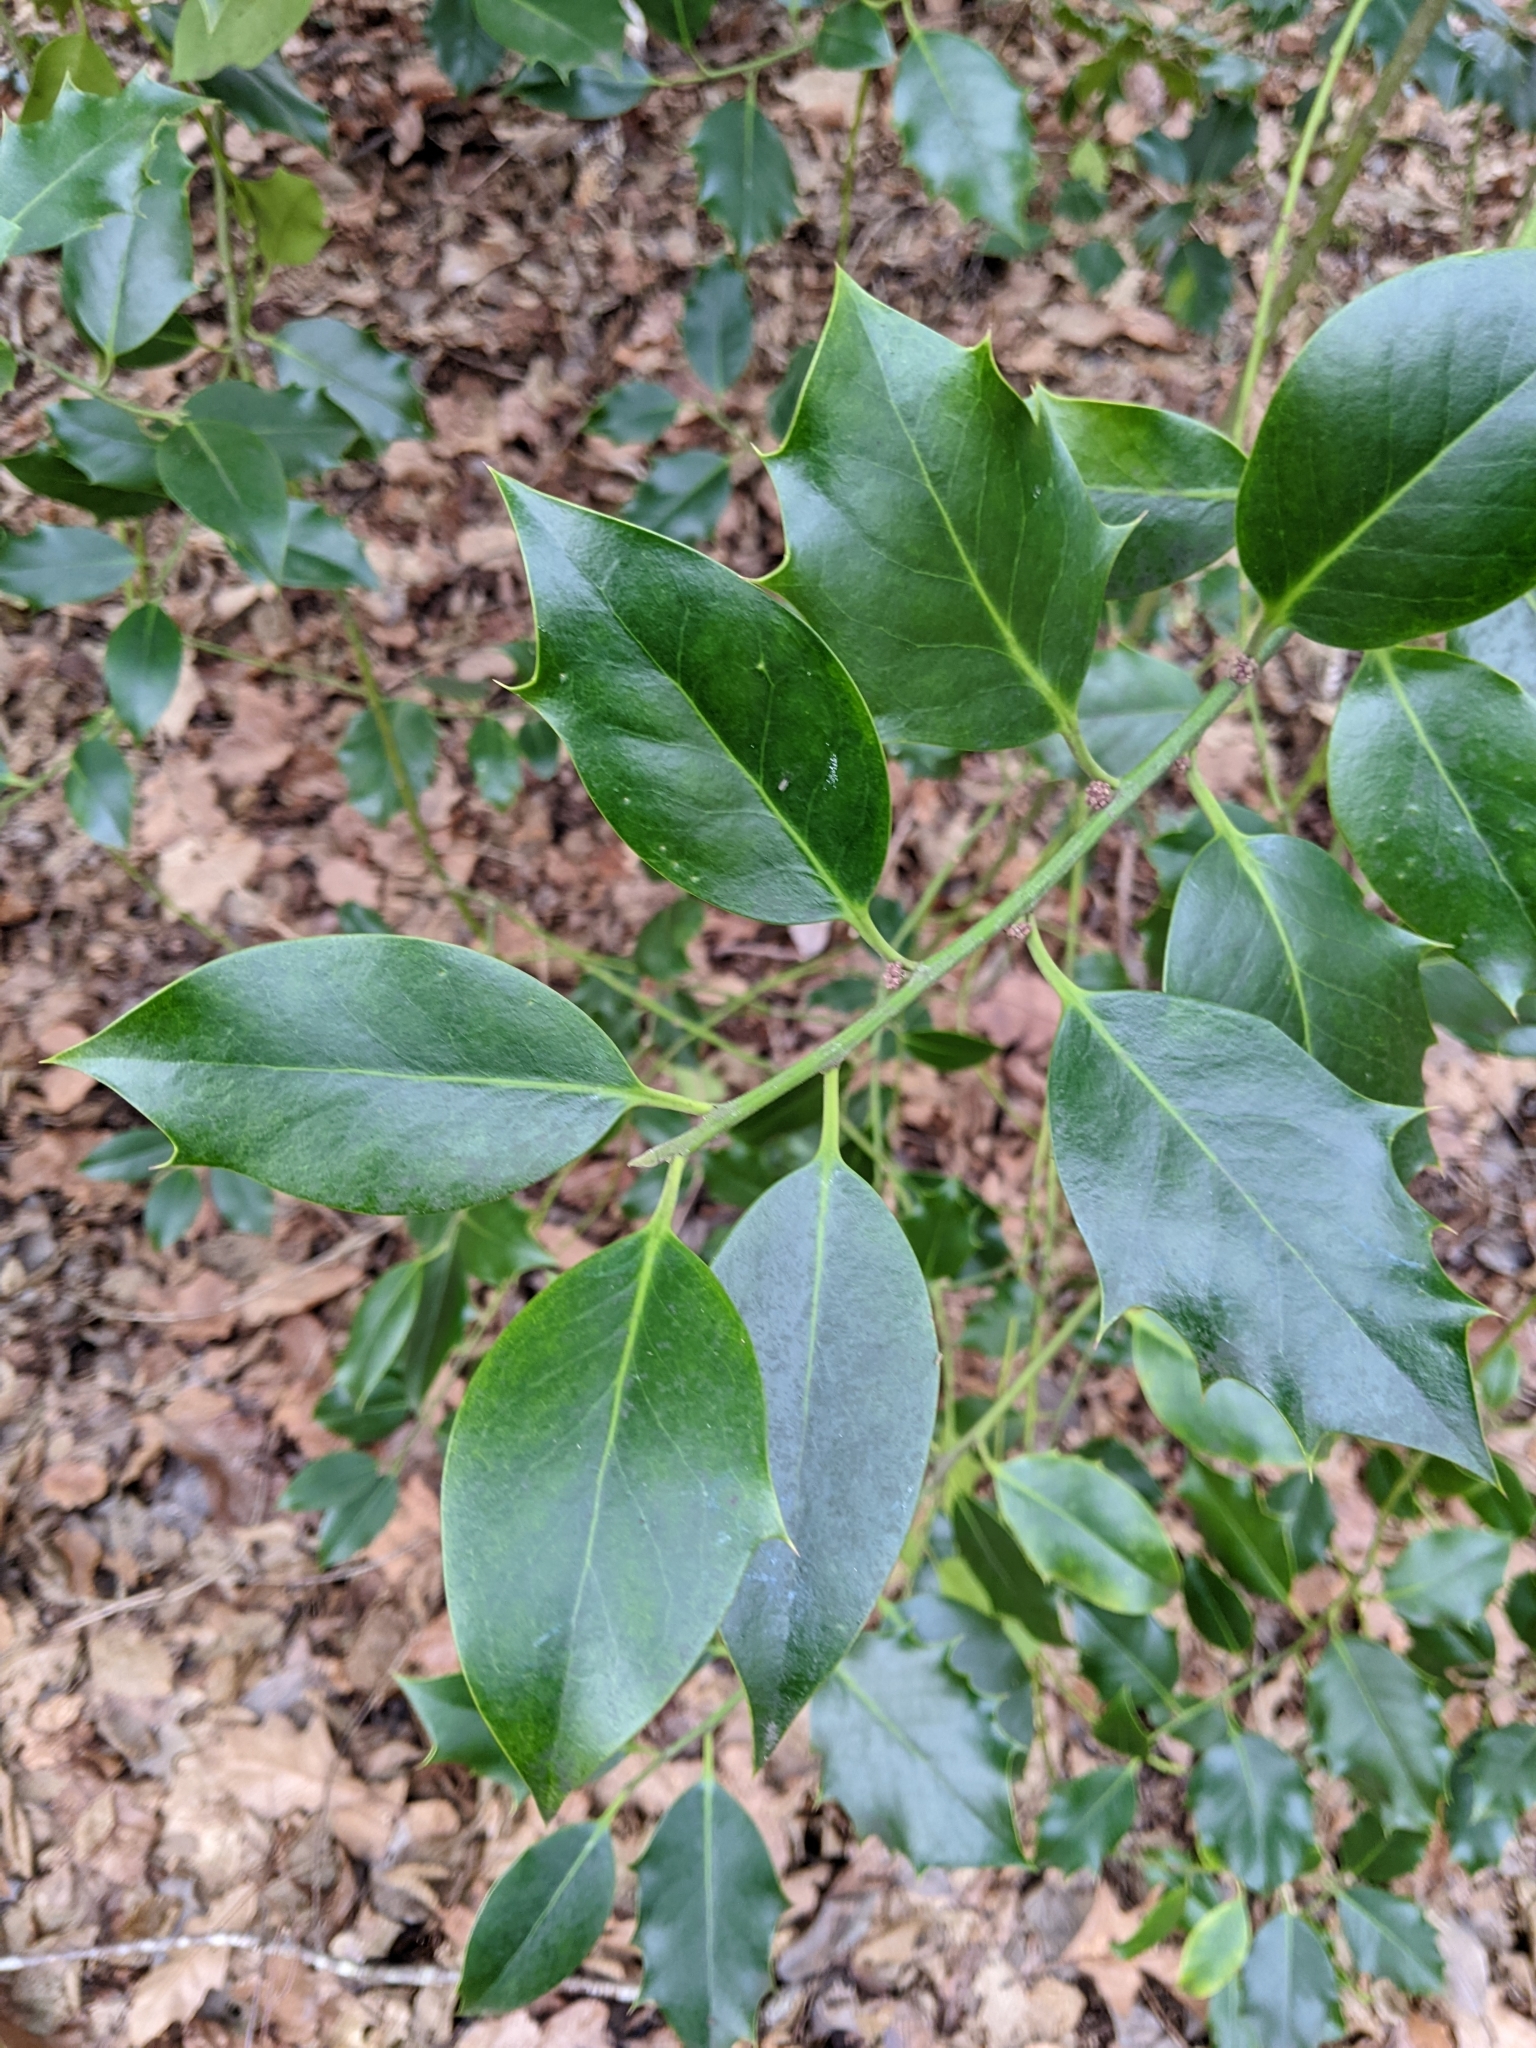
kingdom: Plantae
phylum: Tracheophyta
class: Magnoliopsida
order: Aquifoliales
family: Aquifoliaceae
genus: Ilex
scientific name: Ilex aquifolium
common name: English holly
